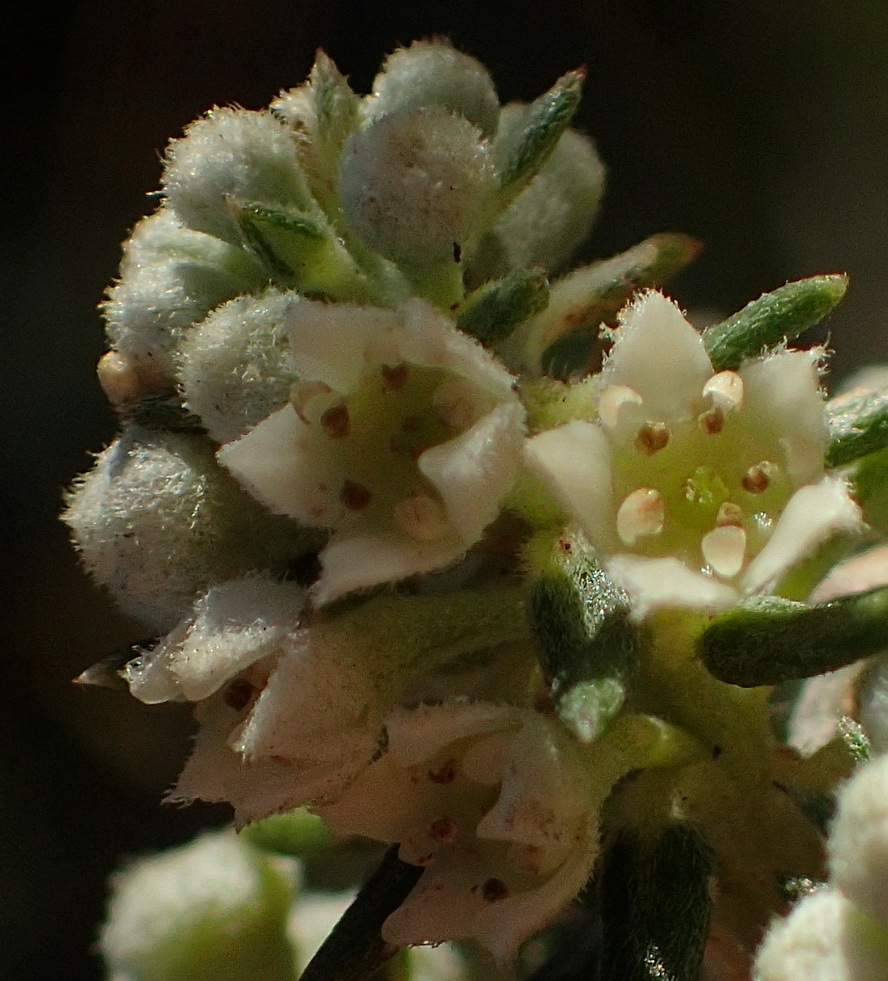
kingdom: Plantae
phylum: Tracheophyta
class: Magnoliopsida
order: Rosales
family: Rhamnaceae
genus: Phylica
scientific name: Phylica axillaris
